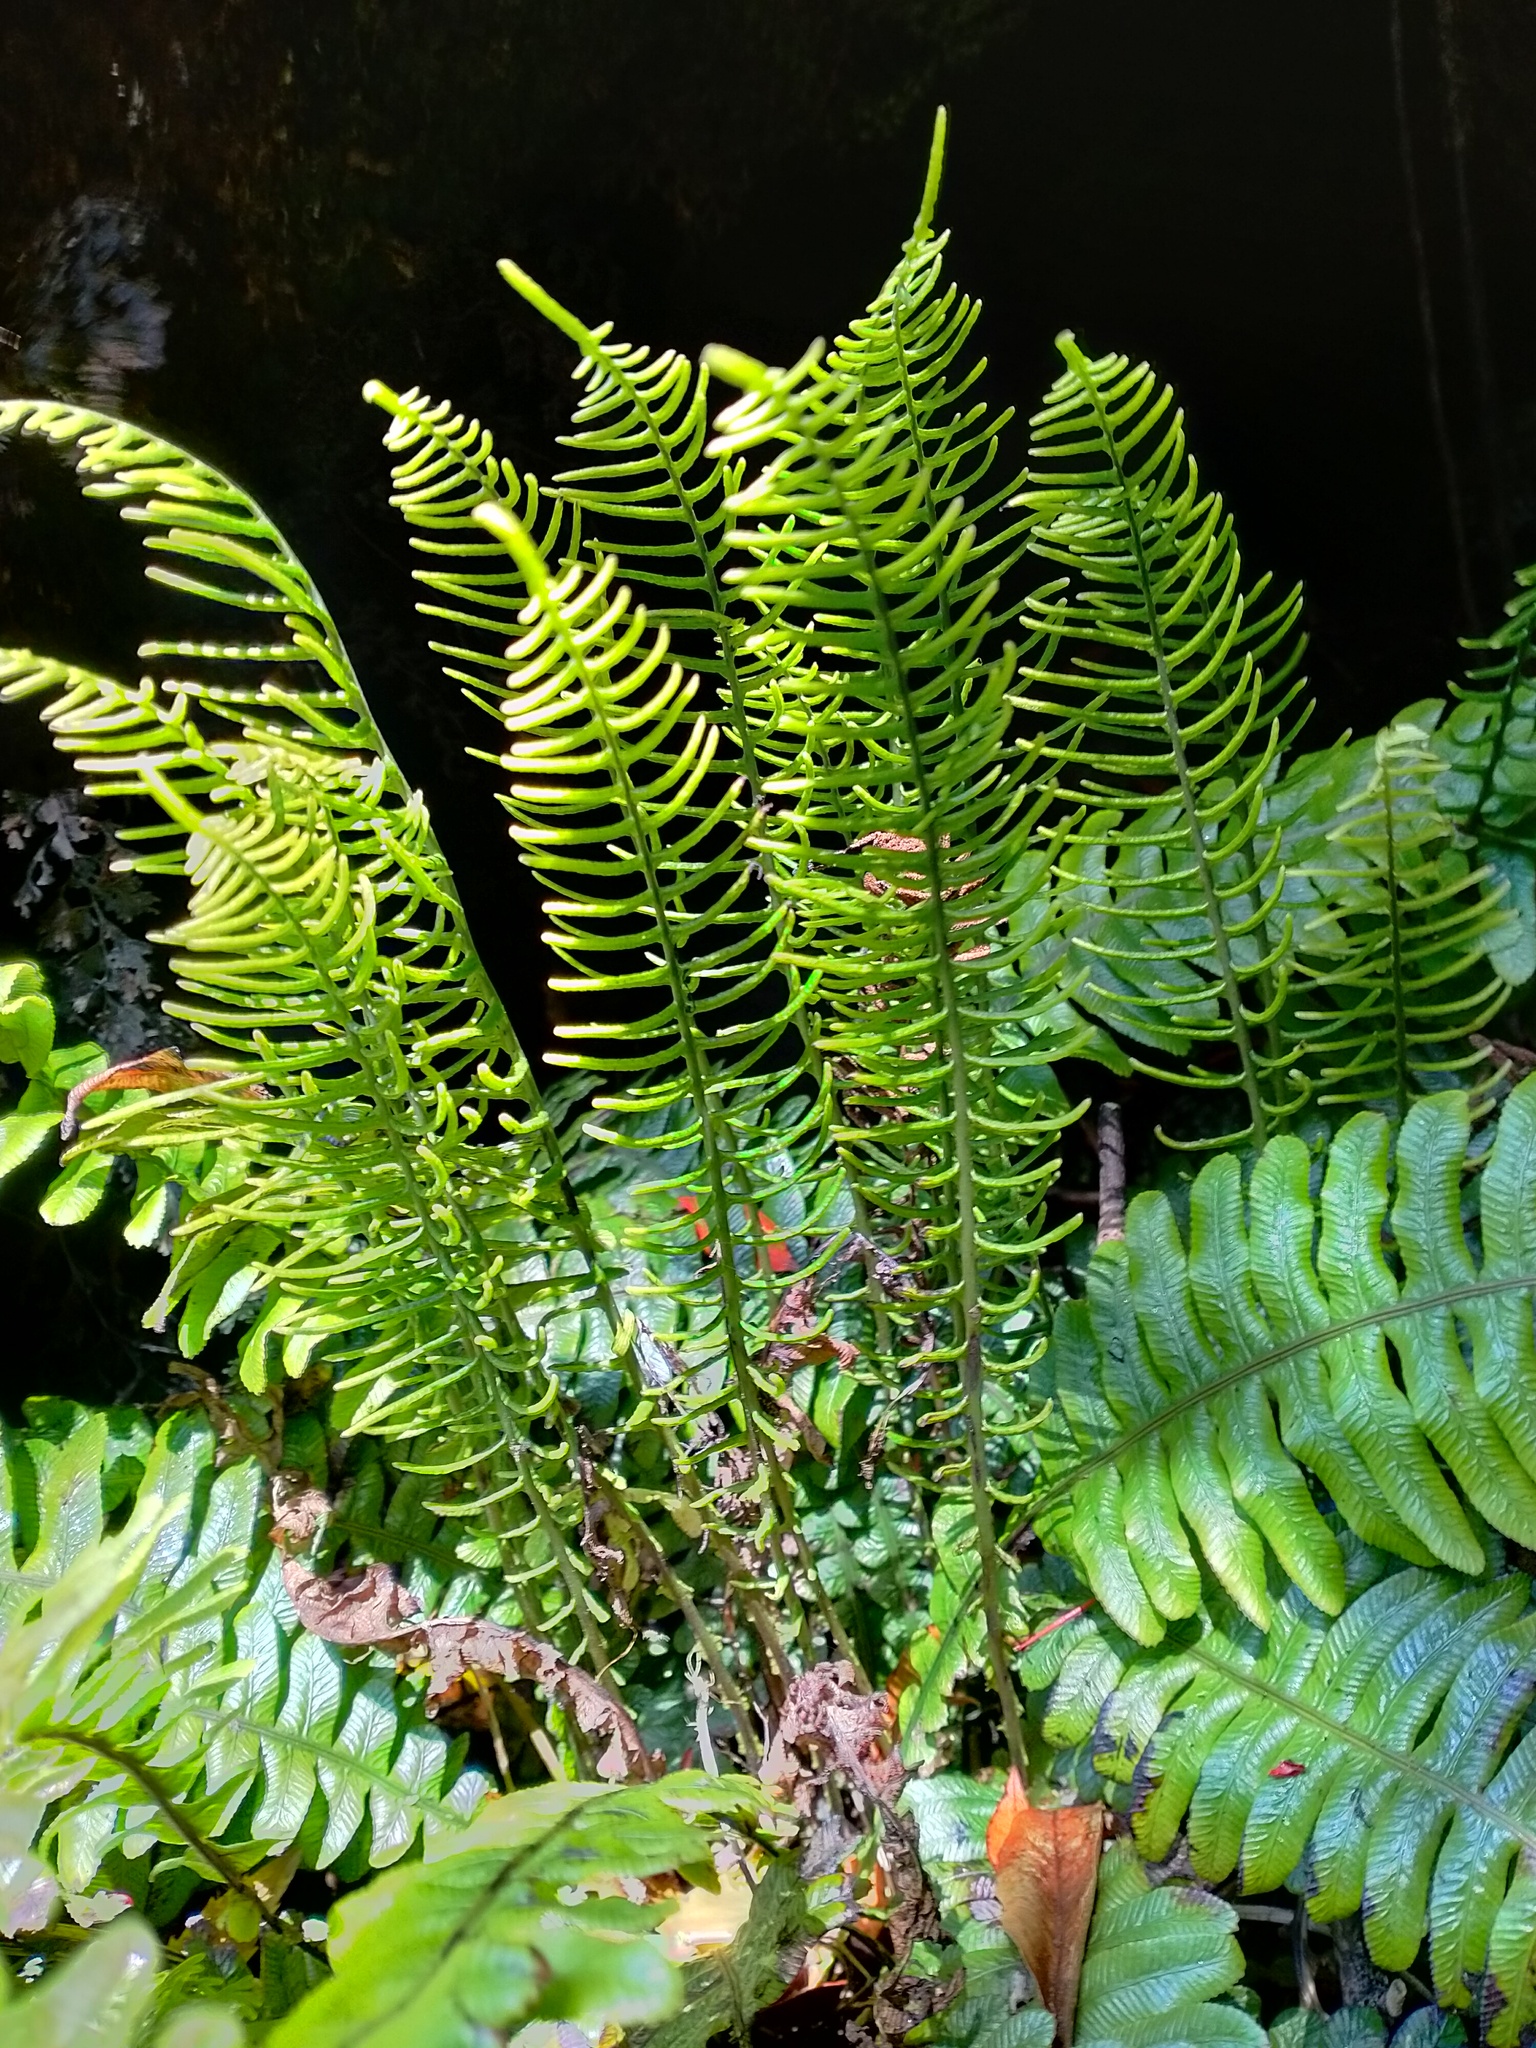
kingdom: Plantae
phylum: Tracheophyta
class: Polypodiopsida
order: Polypodiales
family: Blechnaceae
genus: Austroblechnum
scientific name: Austroblechnum durum
